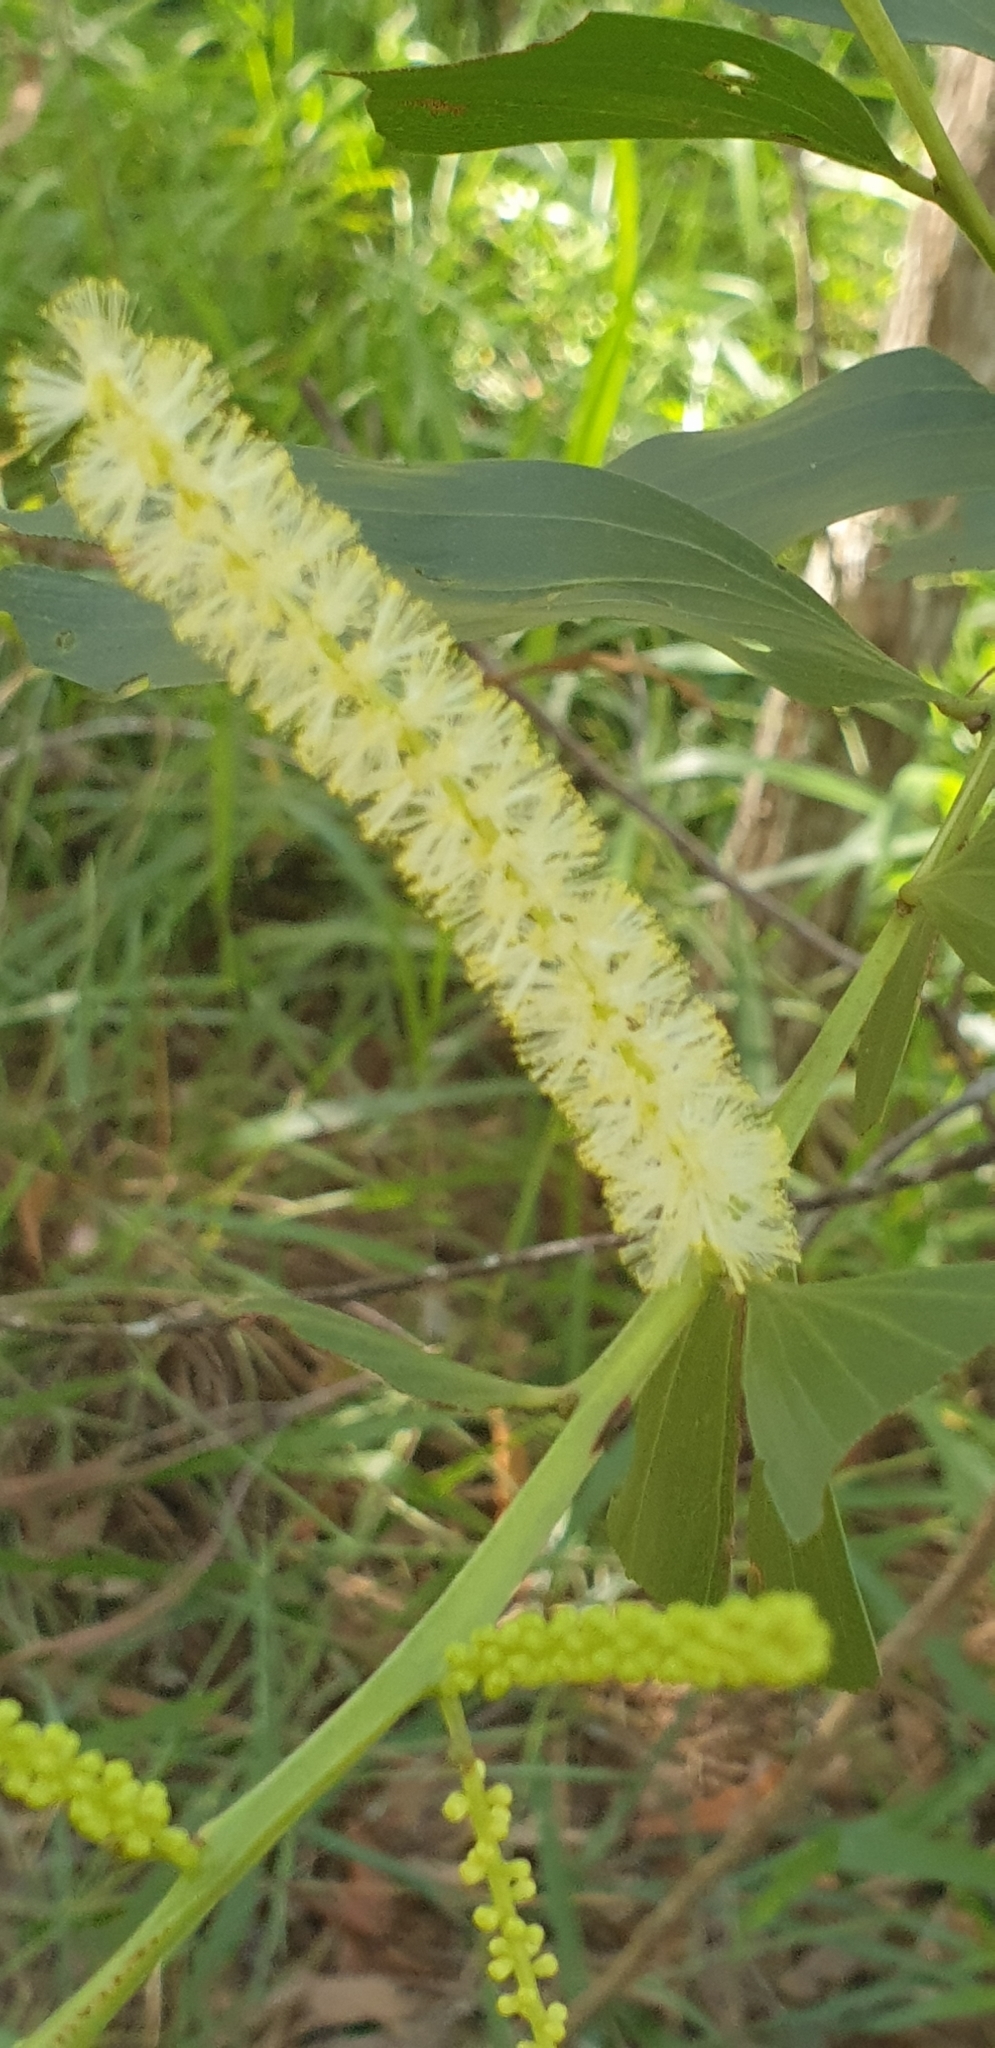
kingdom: Plantae
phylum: Tracheophyta
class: Magnoliopsida
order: Fabales
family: Fabaceae
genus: Acacia
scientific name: Acacia leiocalyx
